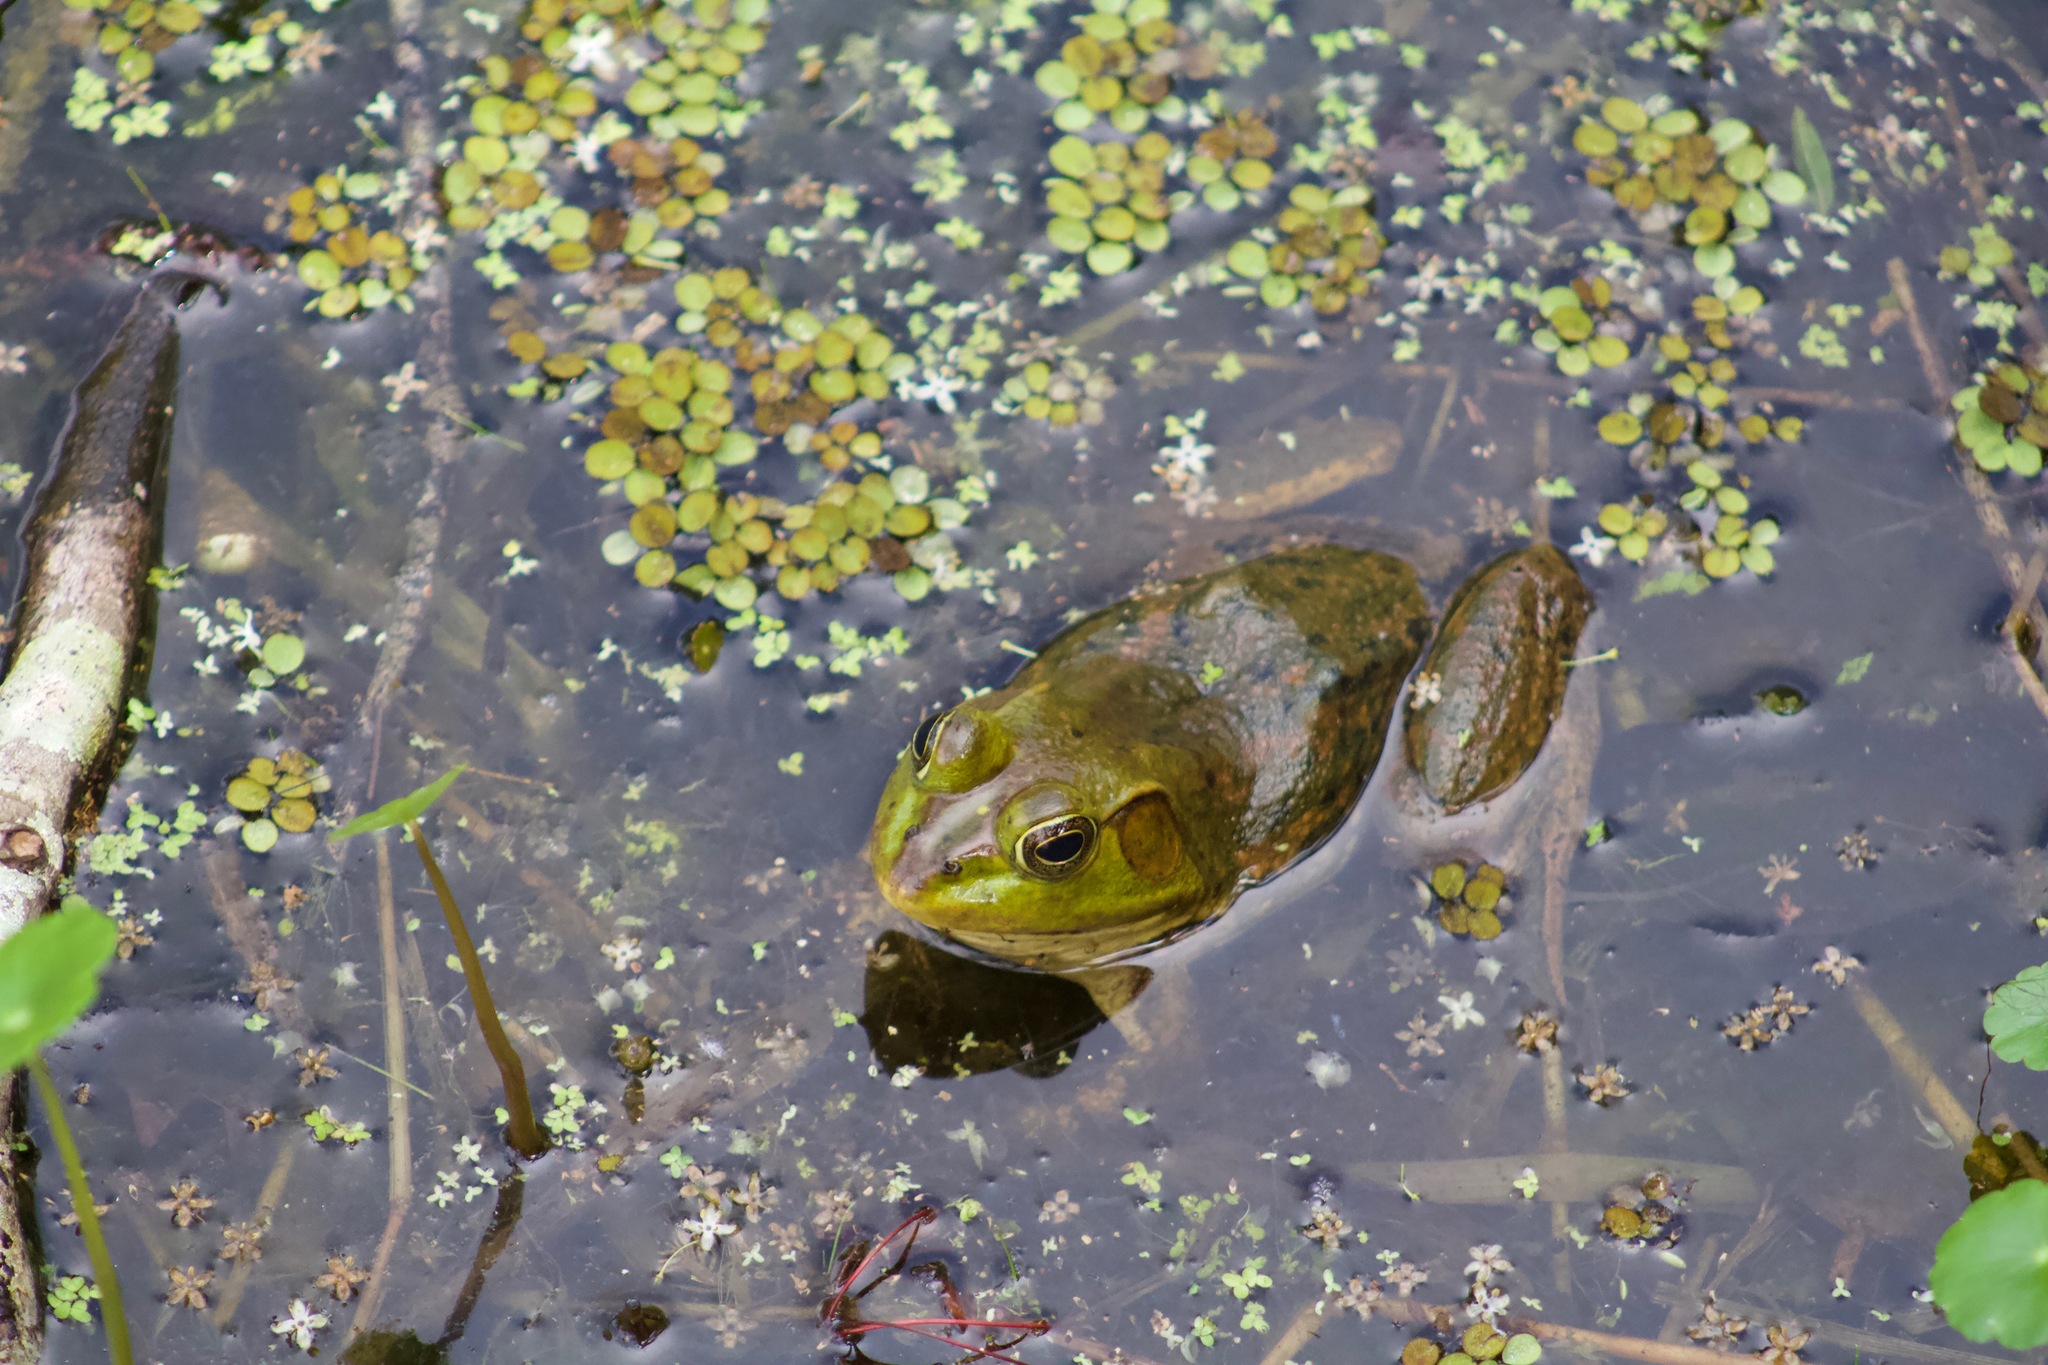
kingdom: Animalia
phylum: Chordata
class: Amphibia
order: Anura
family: Ranidae
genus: Lithobates
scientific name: Lithobates grylio
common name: Pig frog
